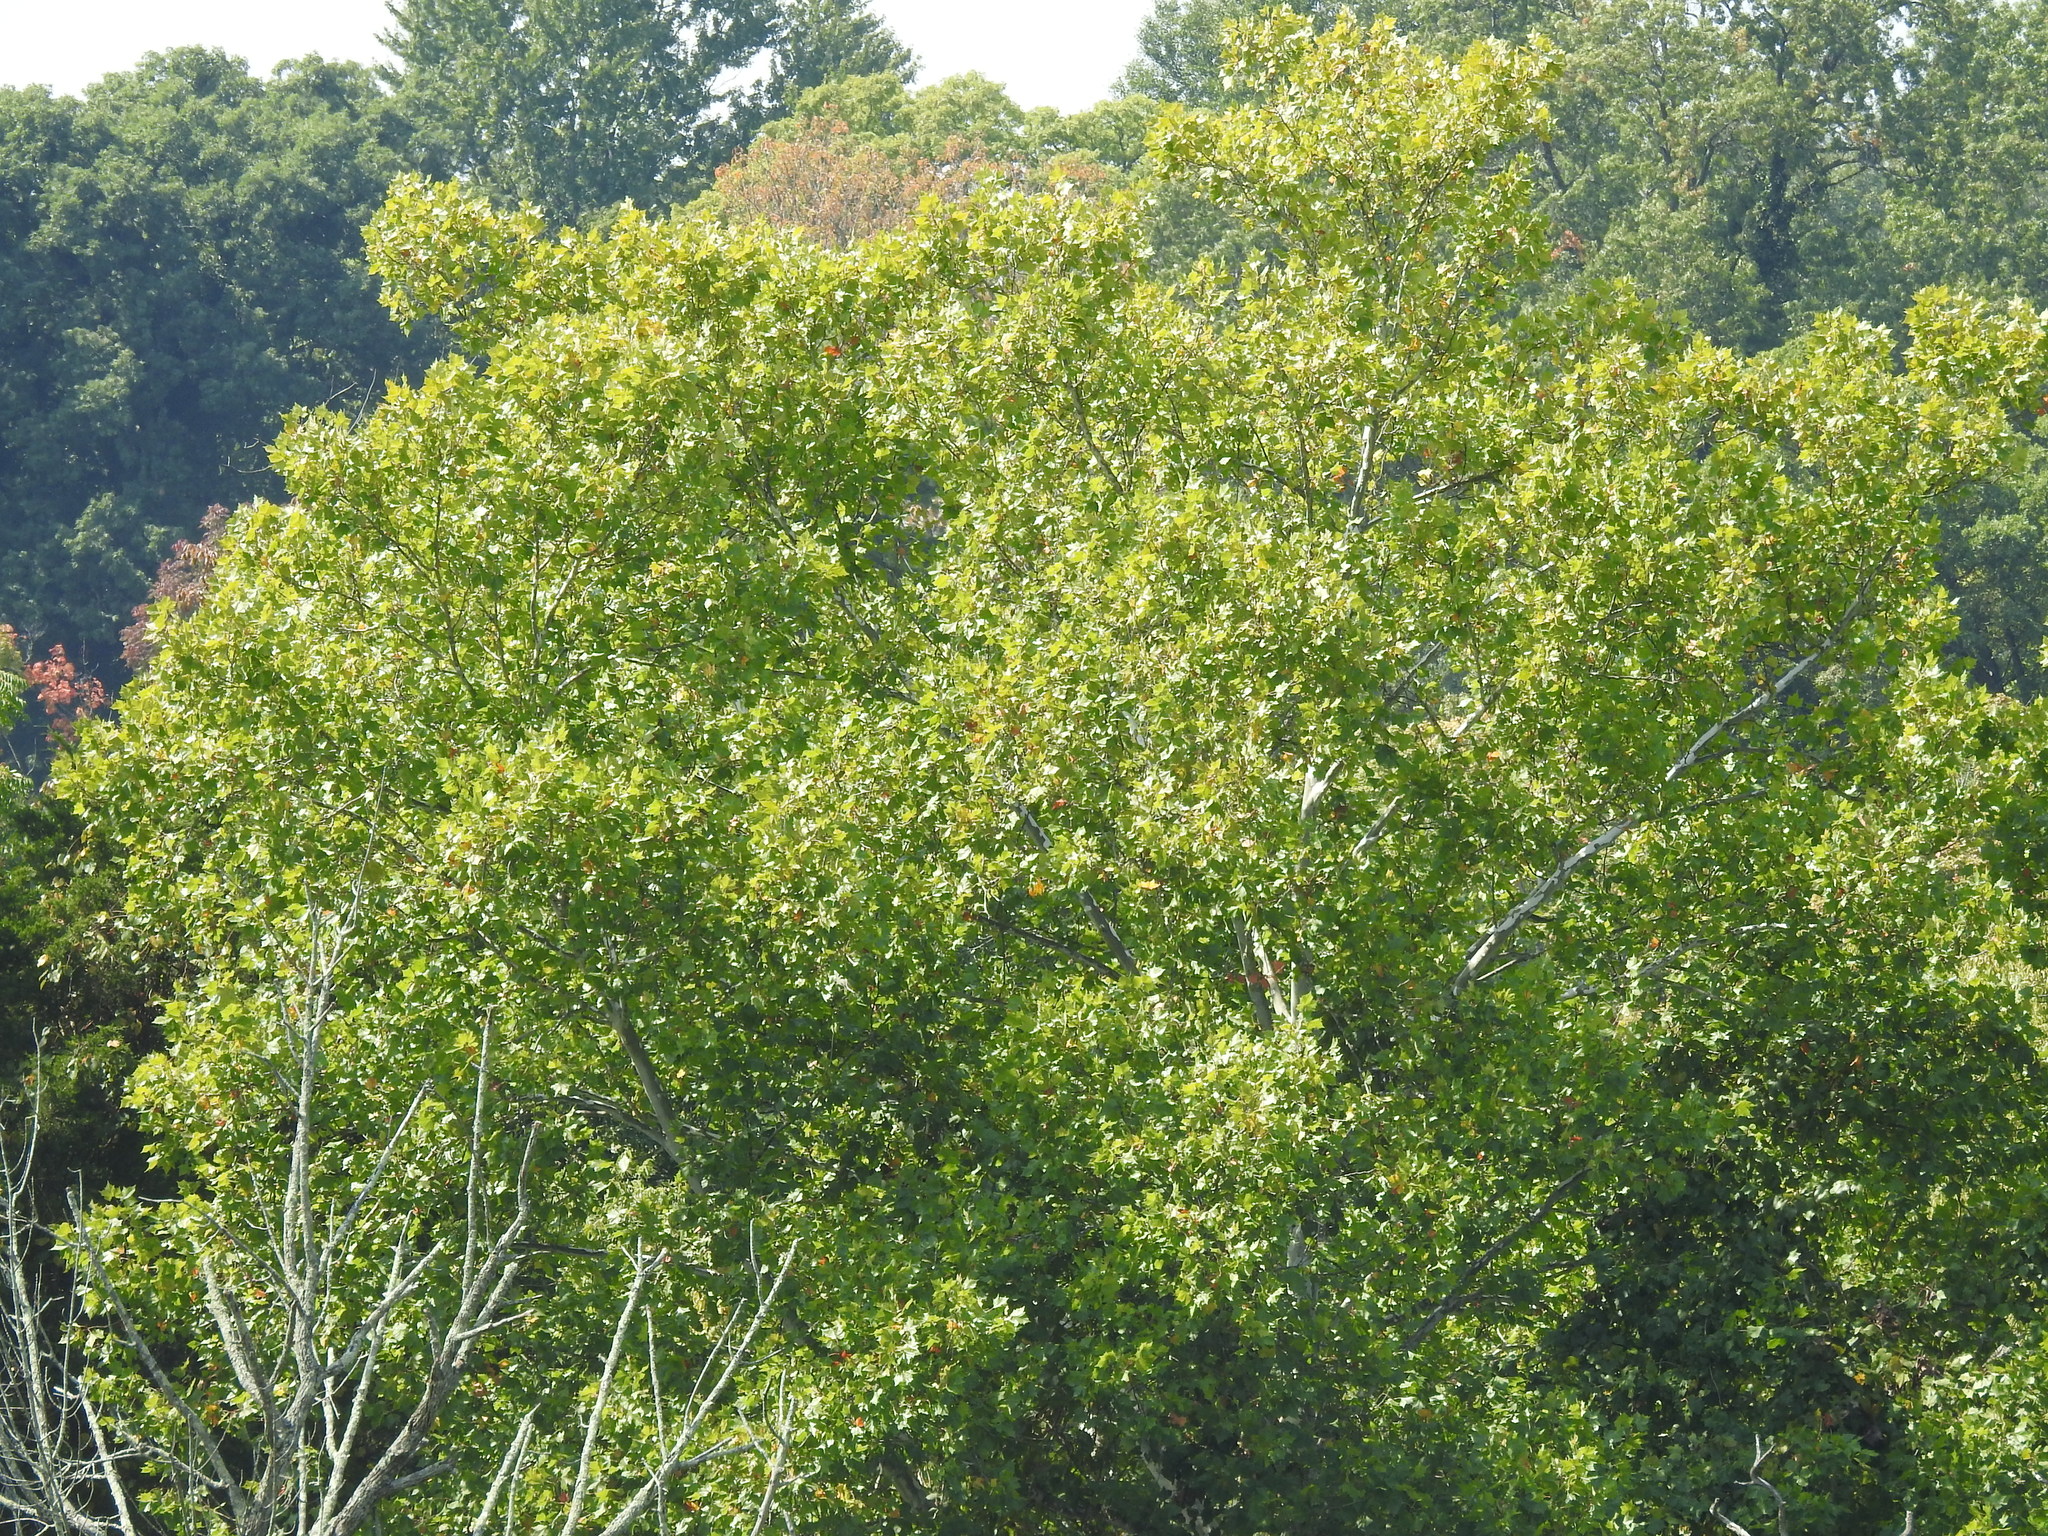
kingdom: Plantae
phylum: Tracheophyta
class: Magnoliopsida
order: Proteales
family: Platanaceae
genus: Platanus
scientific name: Platanus occidentalis
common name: American sycamore
